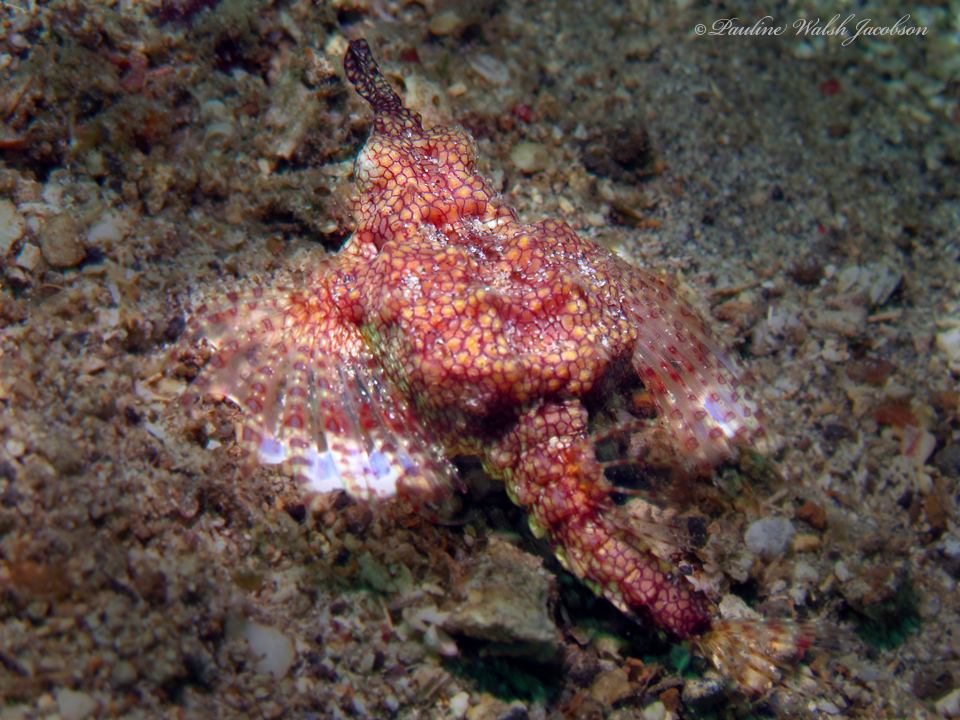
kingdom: Animalia
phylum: Chordata
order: Gasterosteiformes
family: Pegasidae
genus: Eurypegasus
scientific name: Eurypegasus draconis
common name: Short dragonfish
